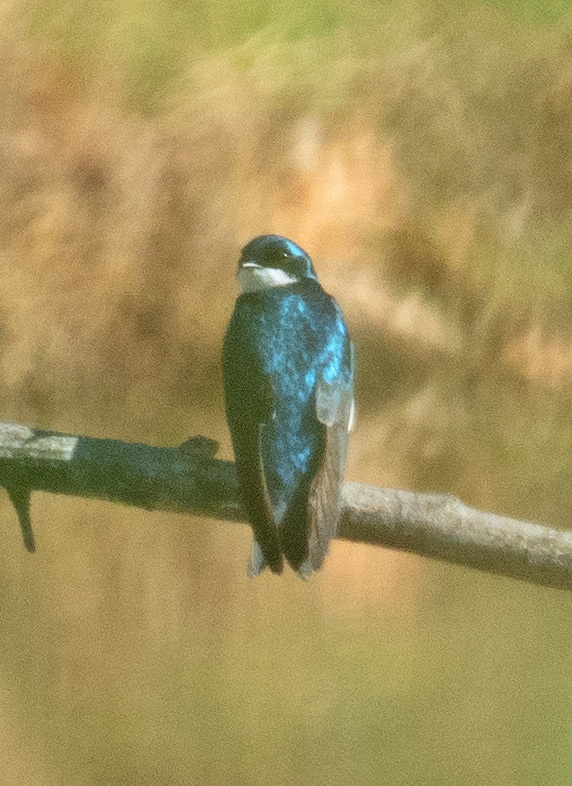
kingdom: Animalia
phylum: Chordata
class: Aves
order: Passeriformes
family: Hirundinidae
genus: Tachycineta
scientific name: Tachycineta bicolor
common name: Tree swallow
